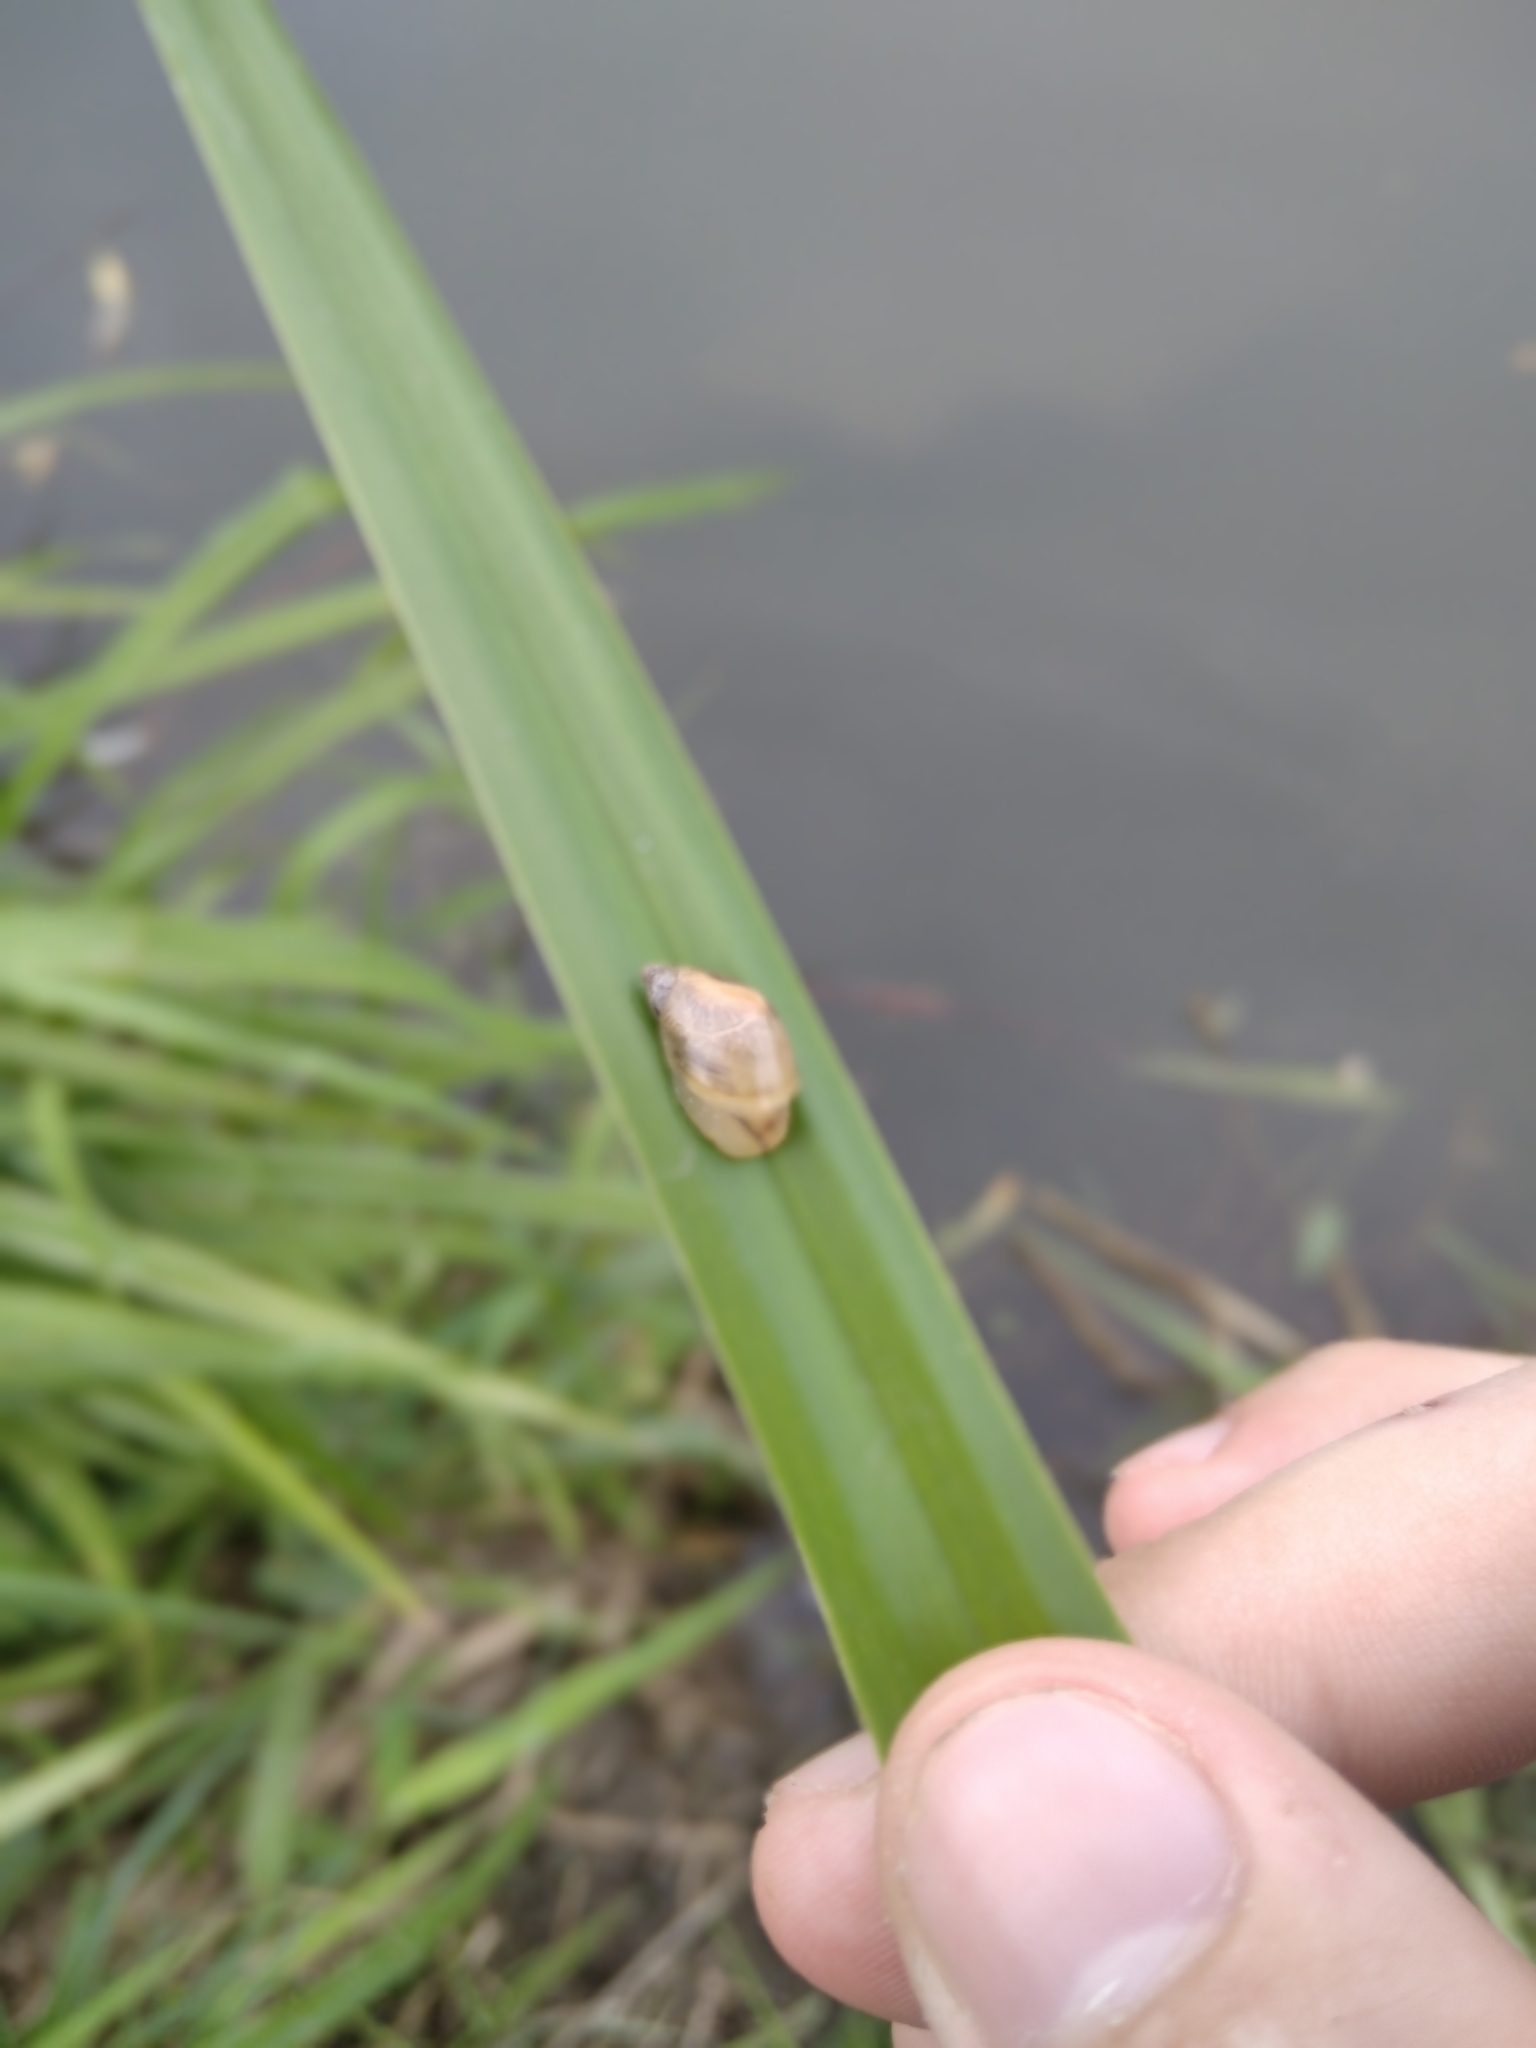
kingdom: Animalia
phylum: Mollusca
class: Gastropoda
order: Stylommatophora
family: Succineidae
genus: Succinea
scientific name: Succinea putris
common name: European ambersnail
